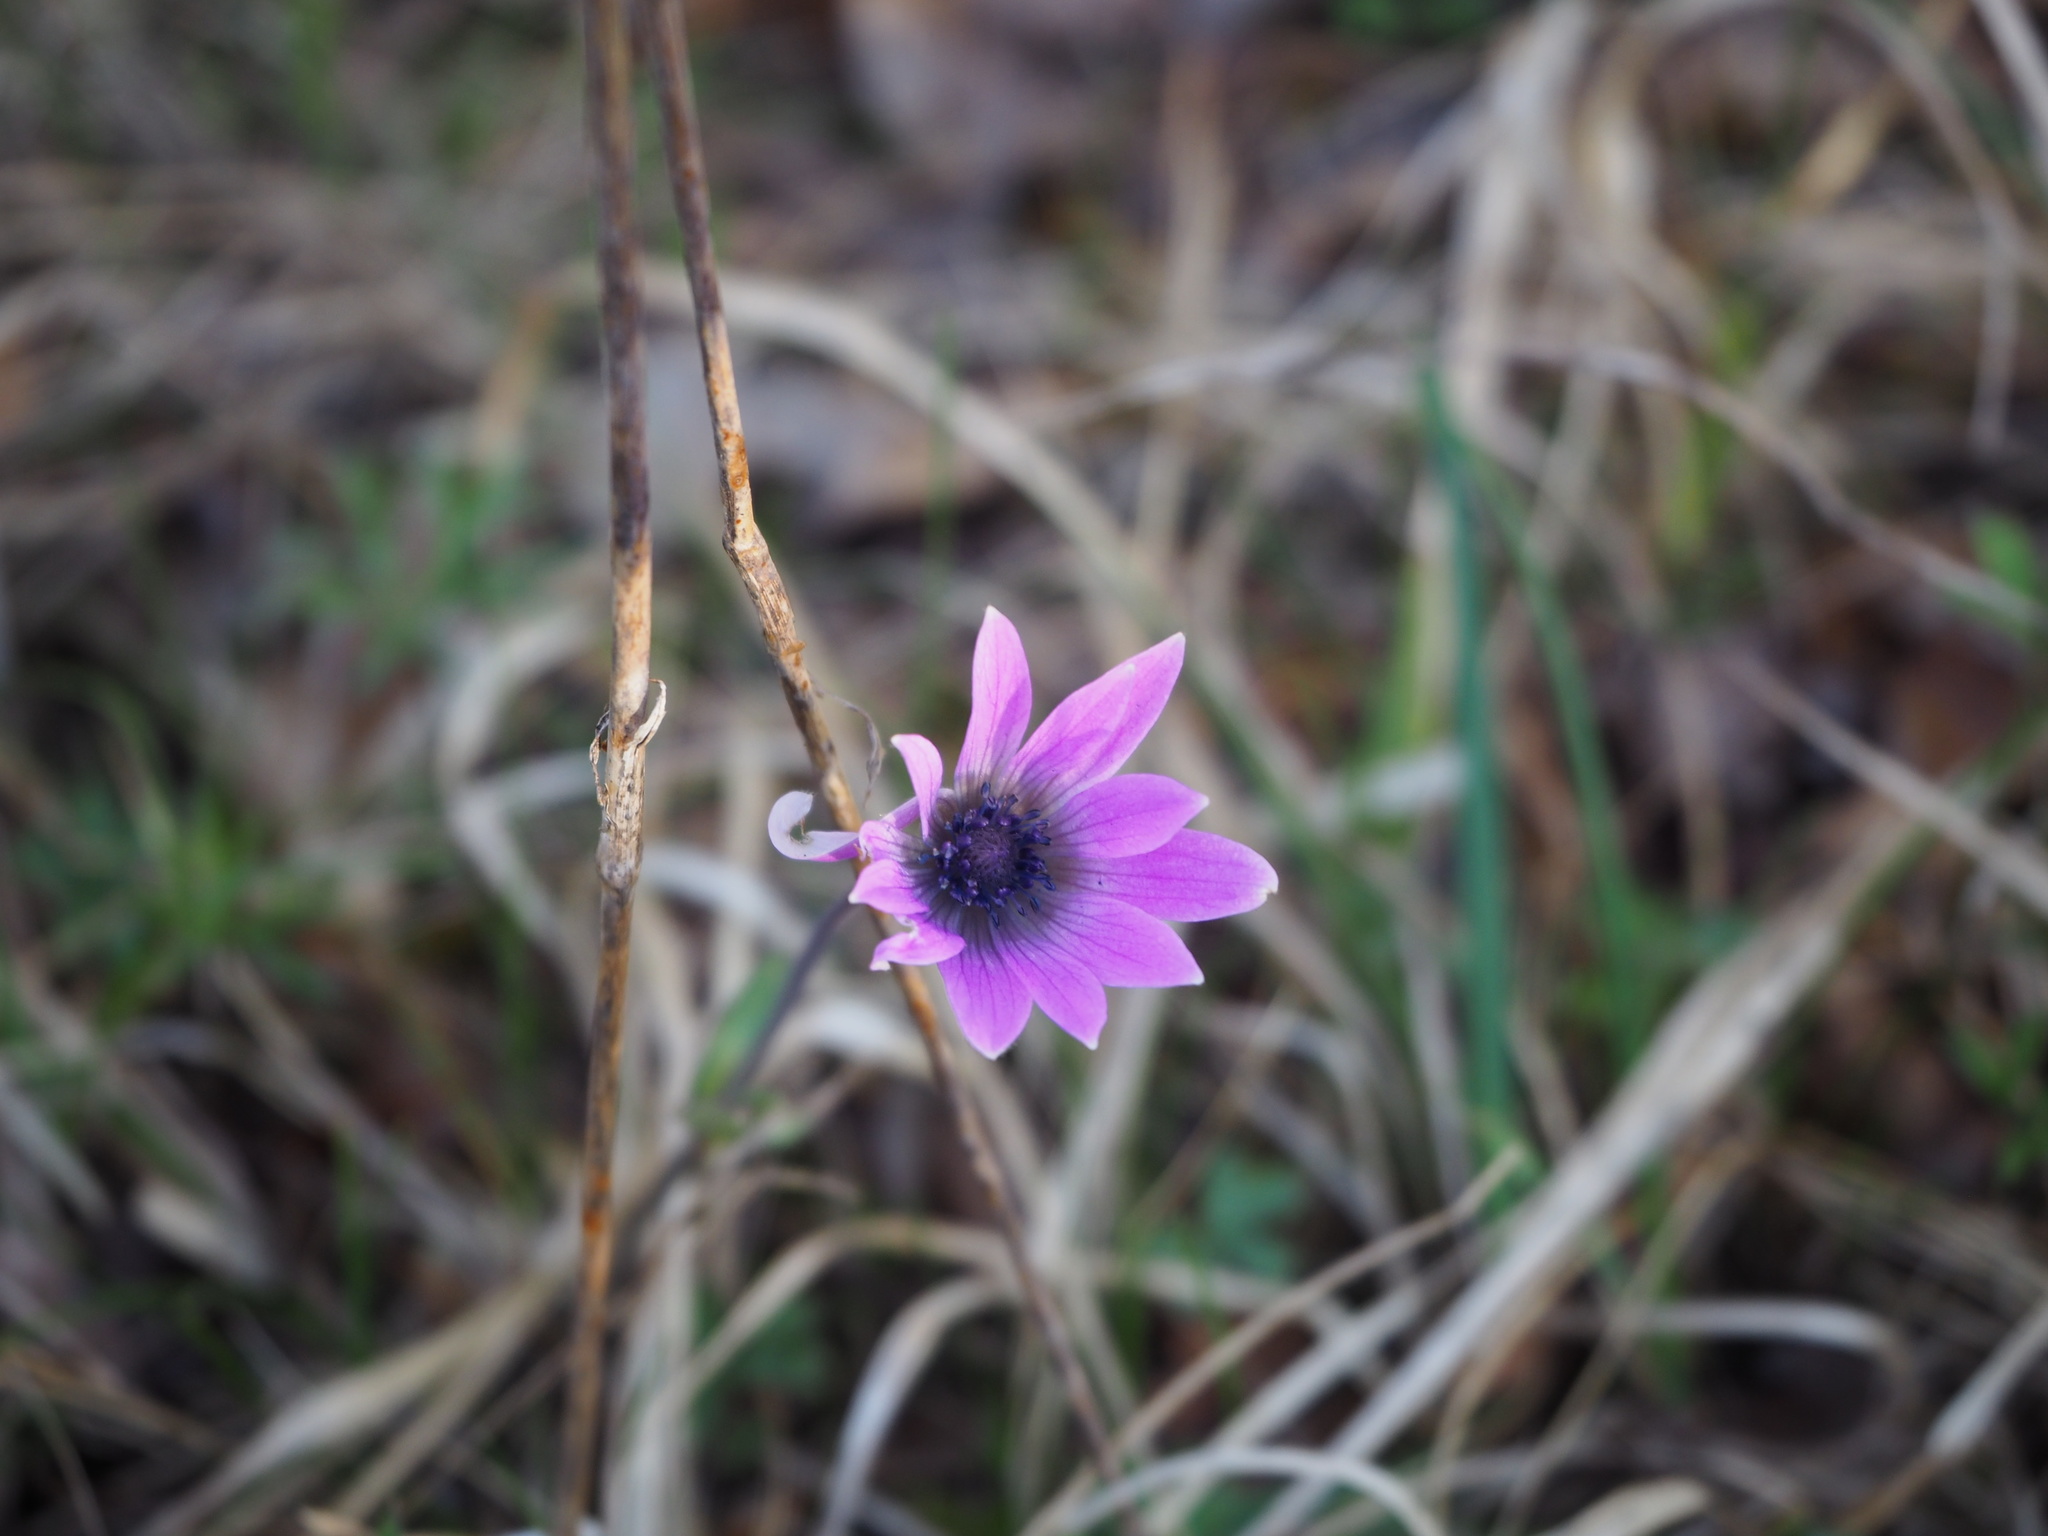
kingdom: Plantae
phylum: Tracheophyta
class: Magnoliopsida
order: Ranunculales
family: Ranunculaceae
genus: Anemone
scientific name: Anemone hortensis
